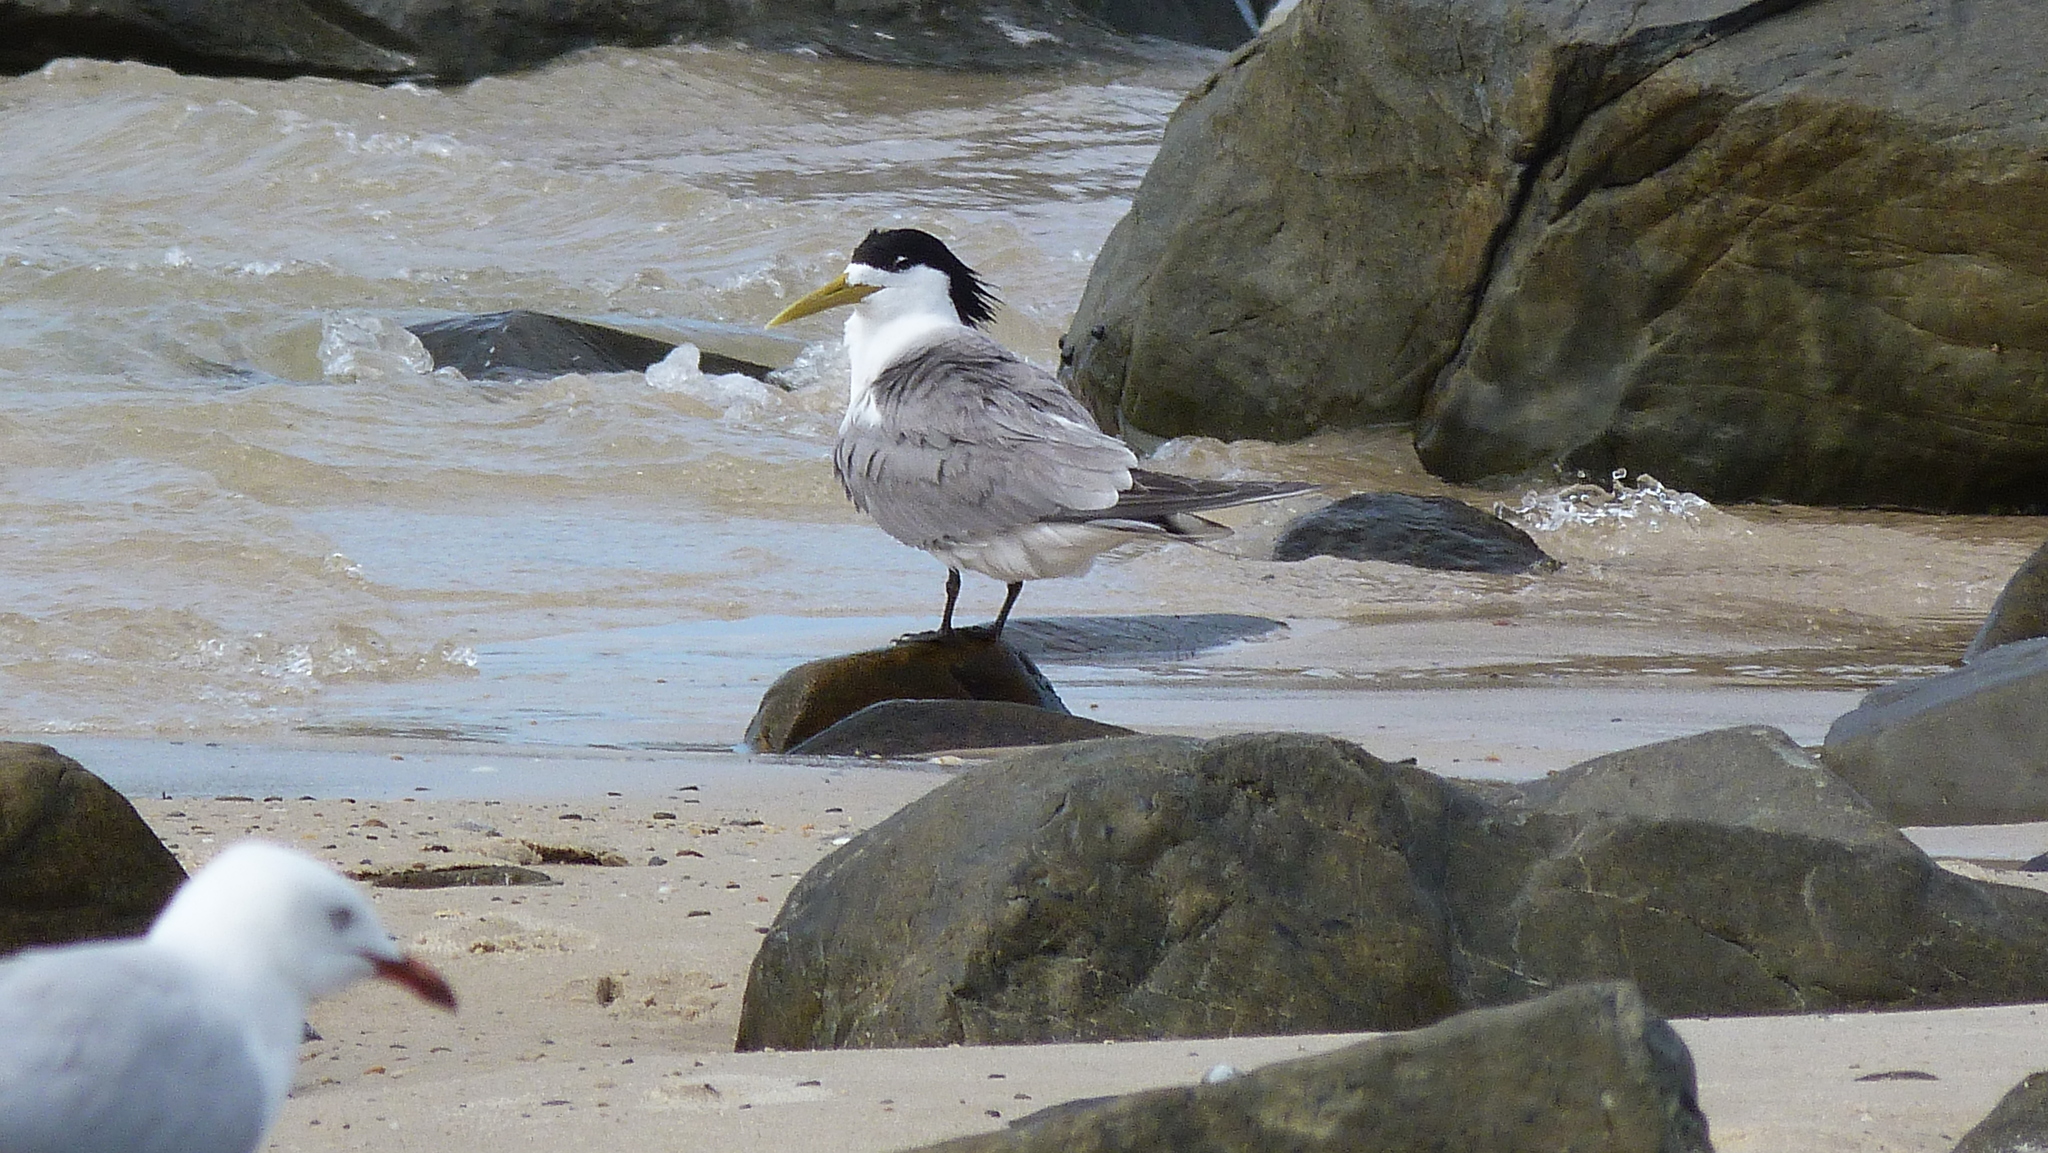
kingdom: Animalia
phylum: Chordata
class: Aves
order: Charadriiformes
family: Laridae
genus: Thalasseus
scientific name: Thalasseus bergii
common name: Greater crested tern
